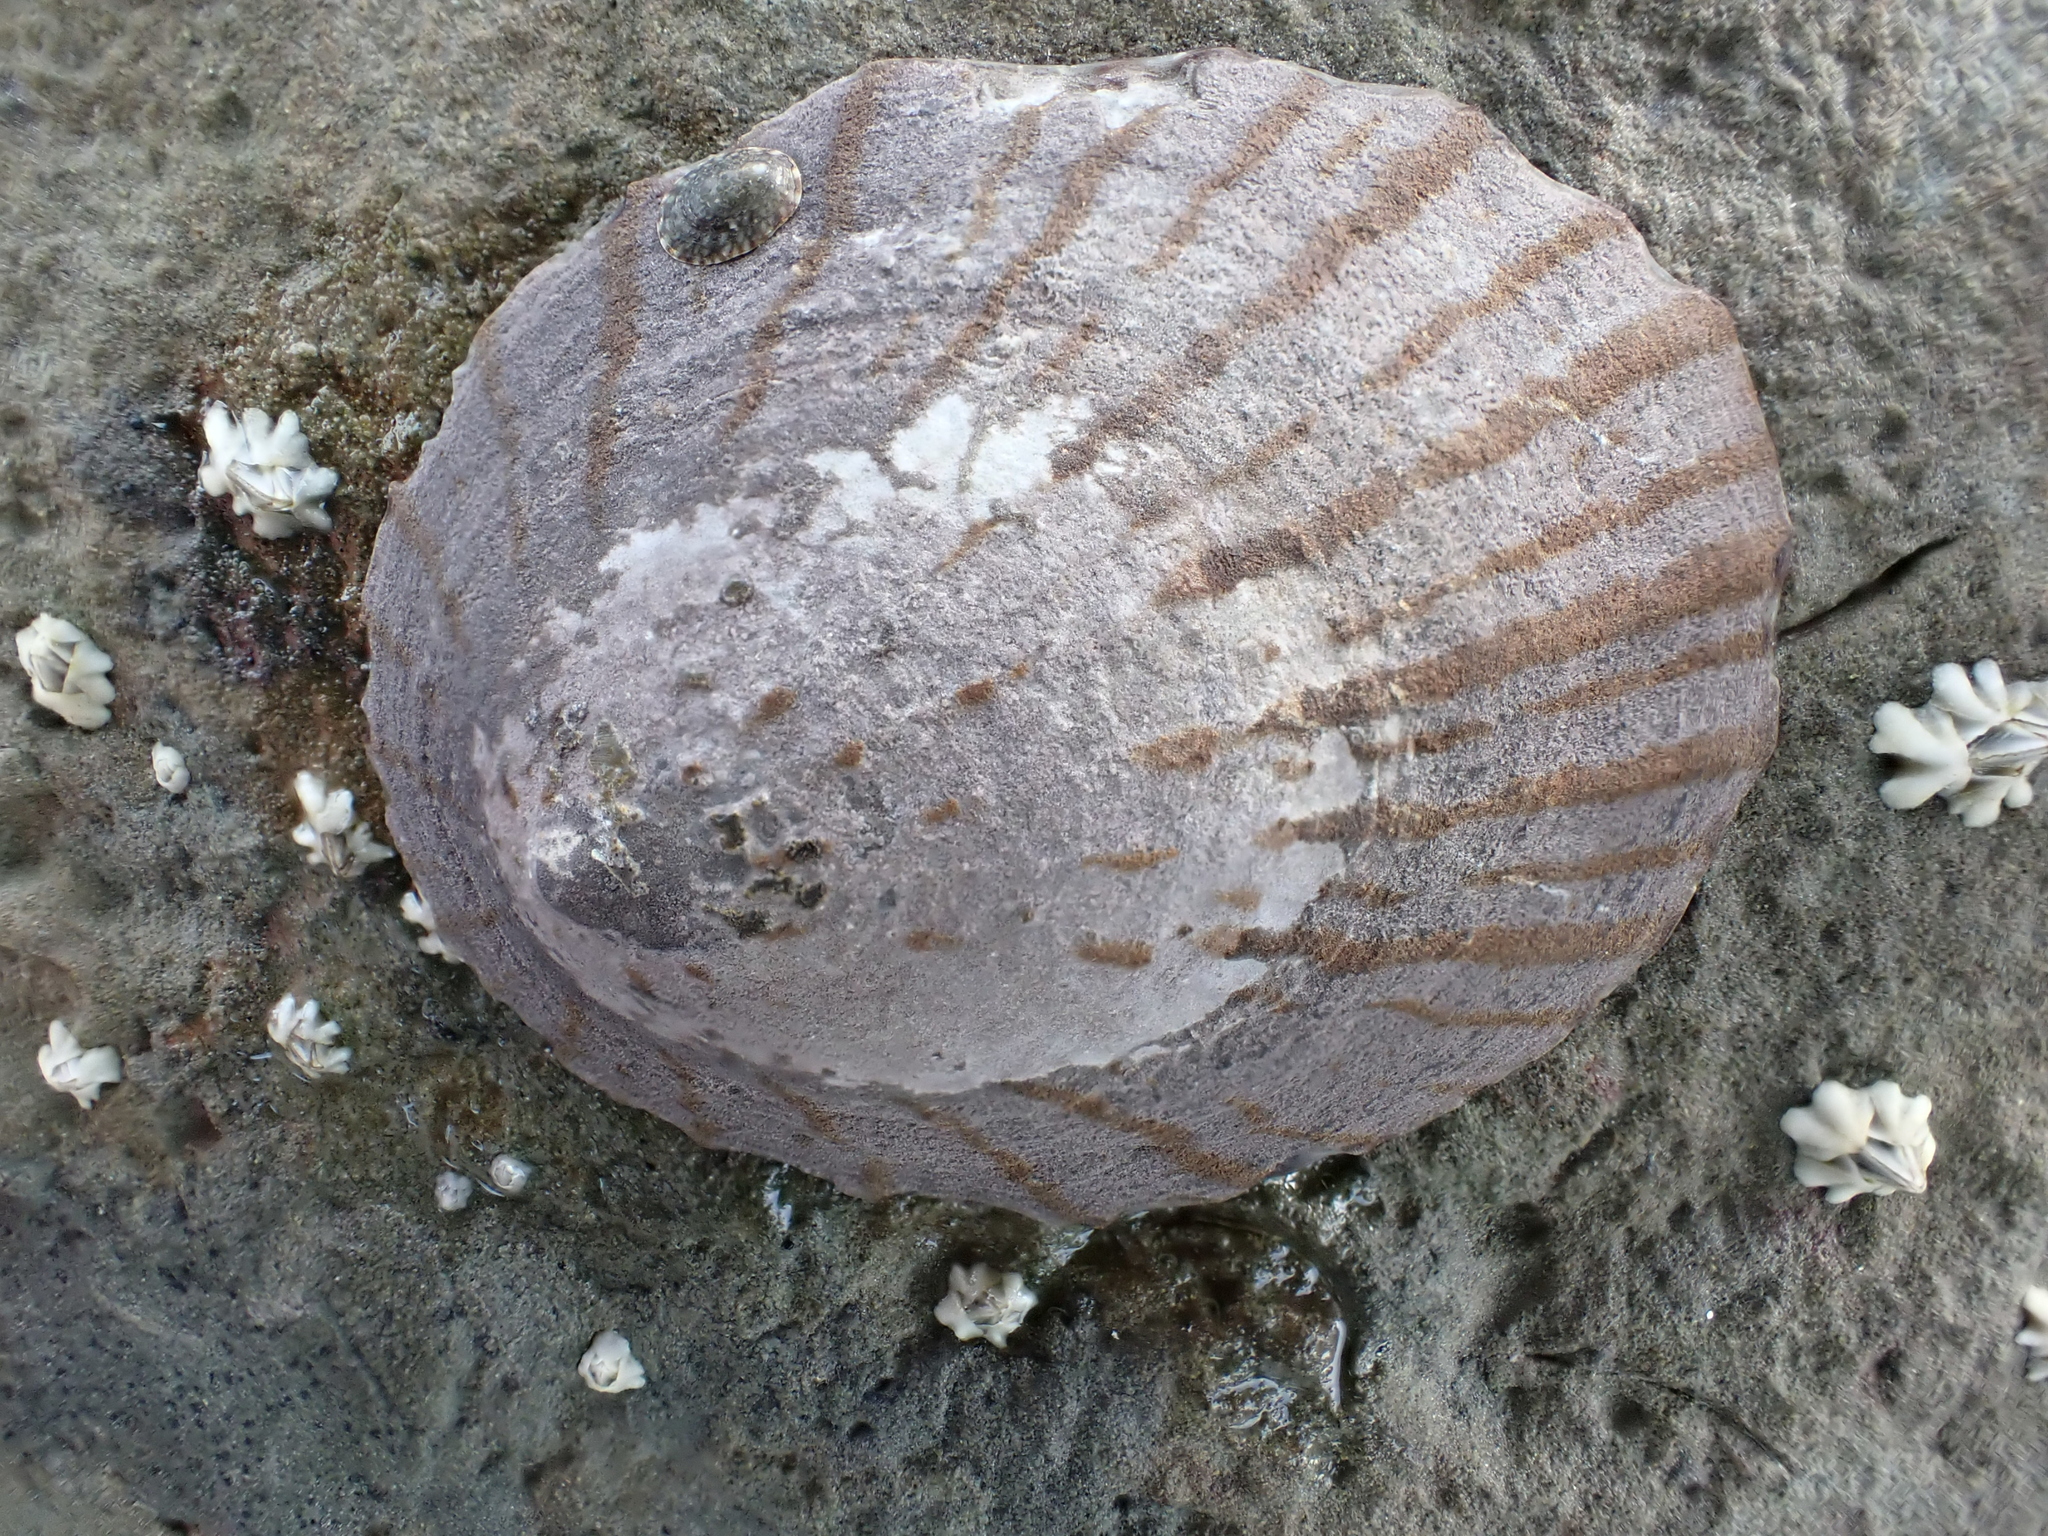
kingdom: Animalia
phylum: Mollusca
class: Gastropoda
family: Nacellidae
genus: Cellana
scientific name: Cellana radians
